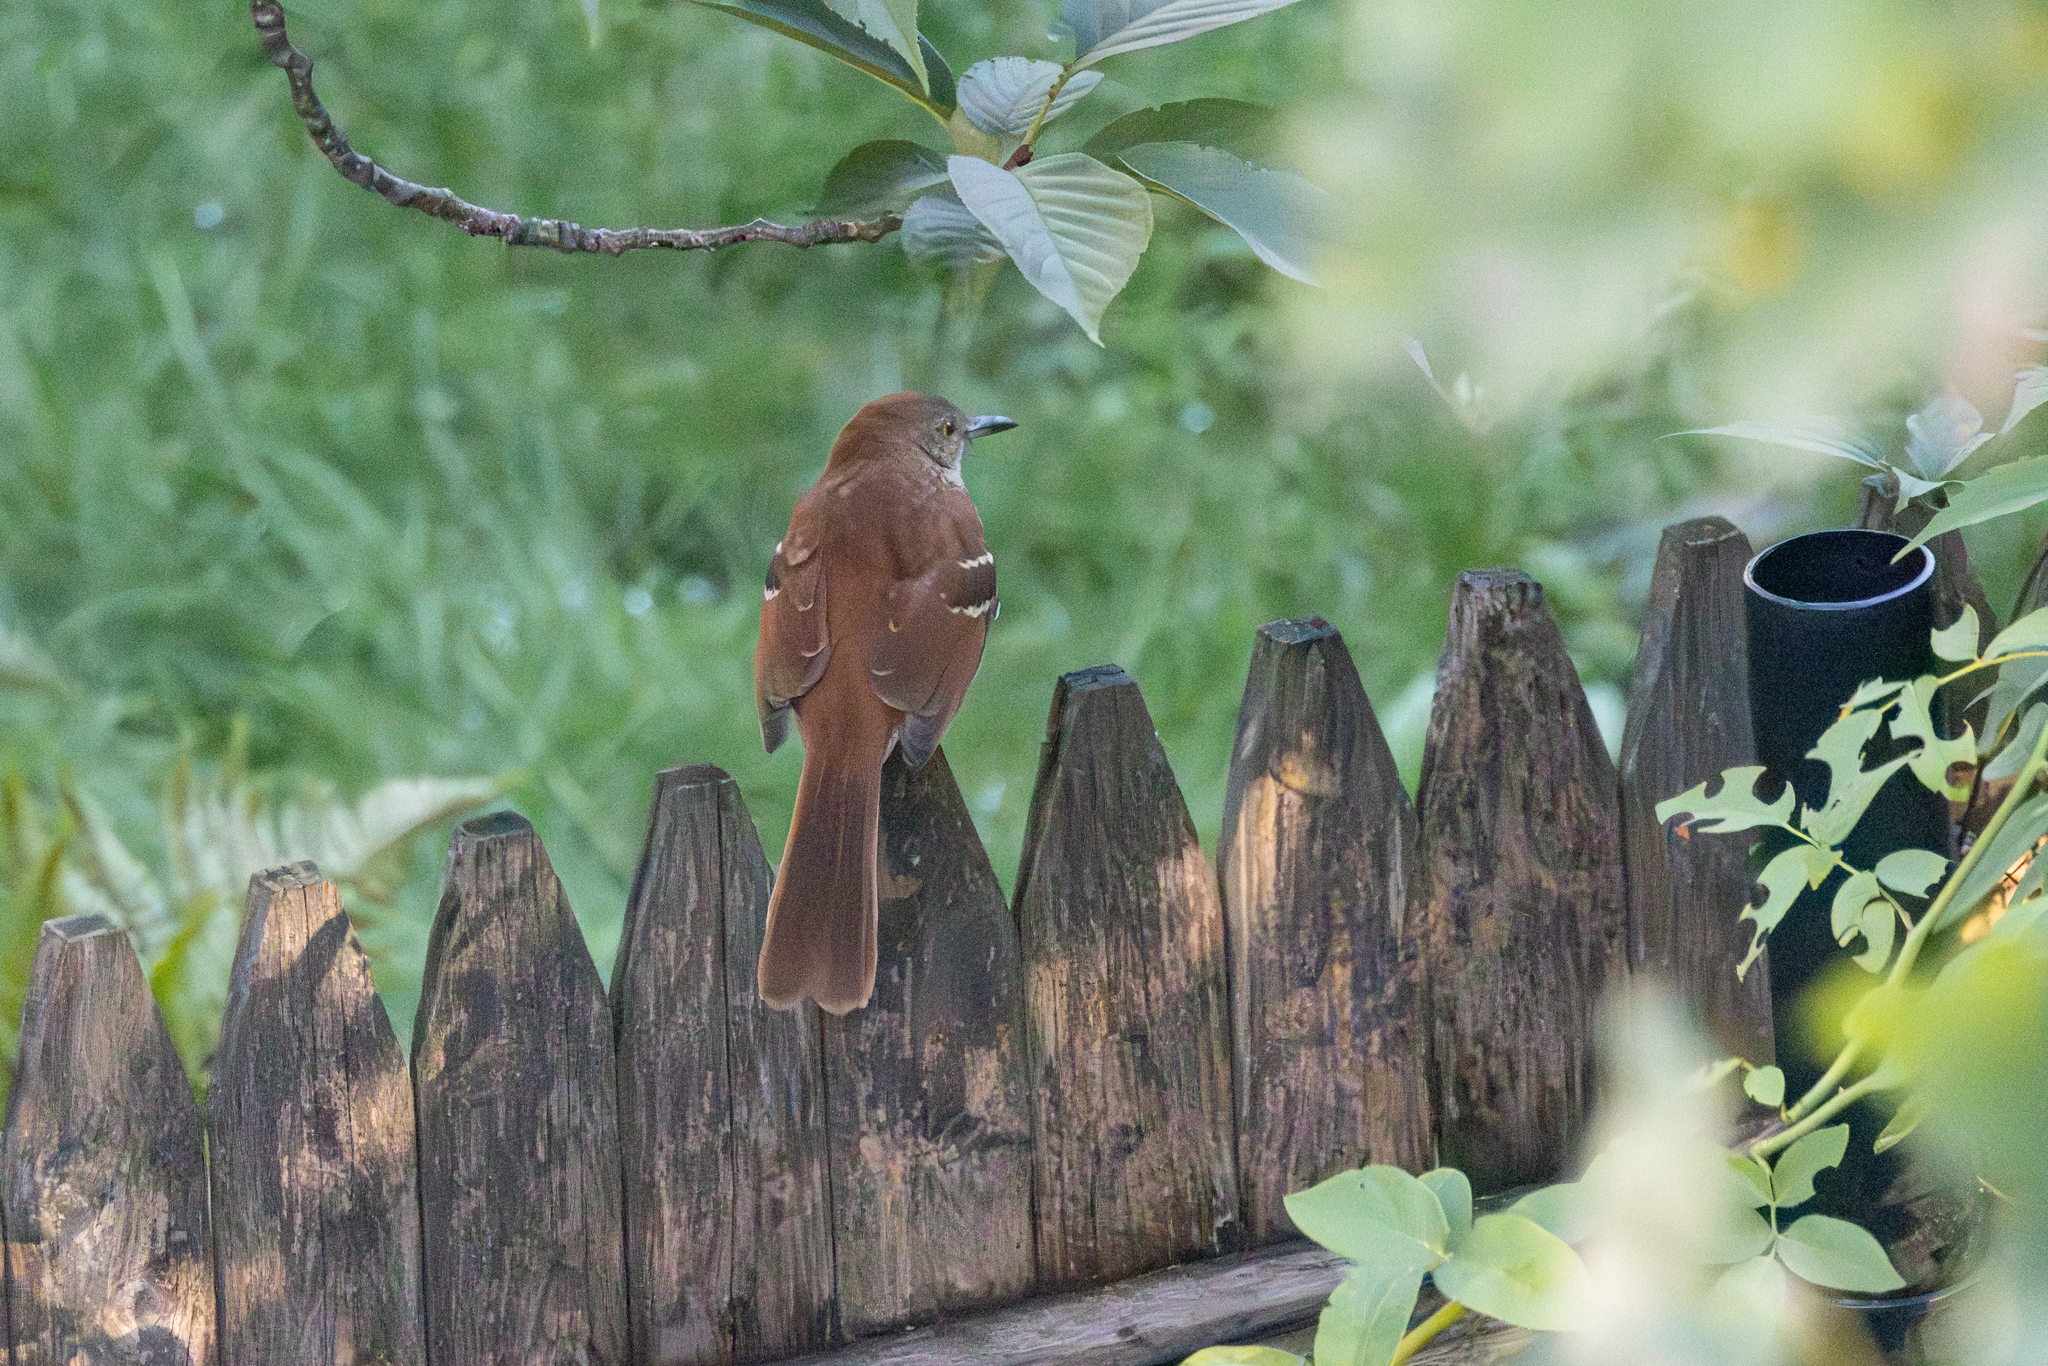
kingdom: Animalia
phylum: Chordata
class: Aves
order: Passeriformes
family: Mimidae
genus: Toxostoma
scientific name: Toxostoma rufum
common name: Brown thrasher
